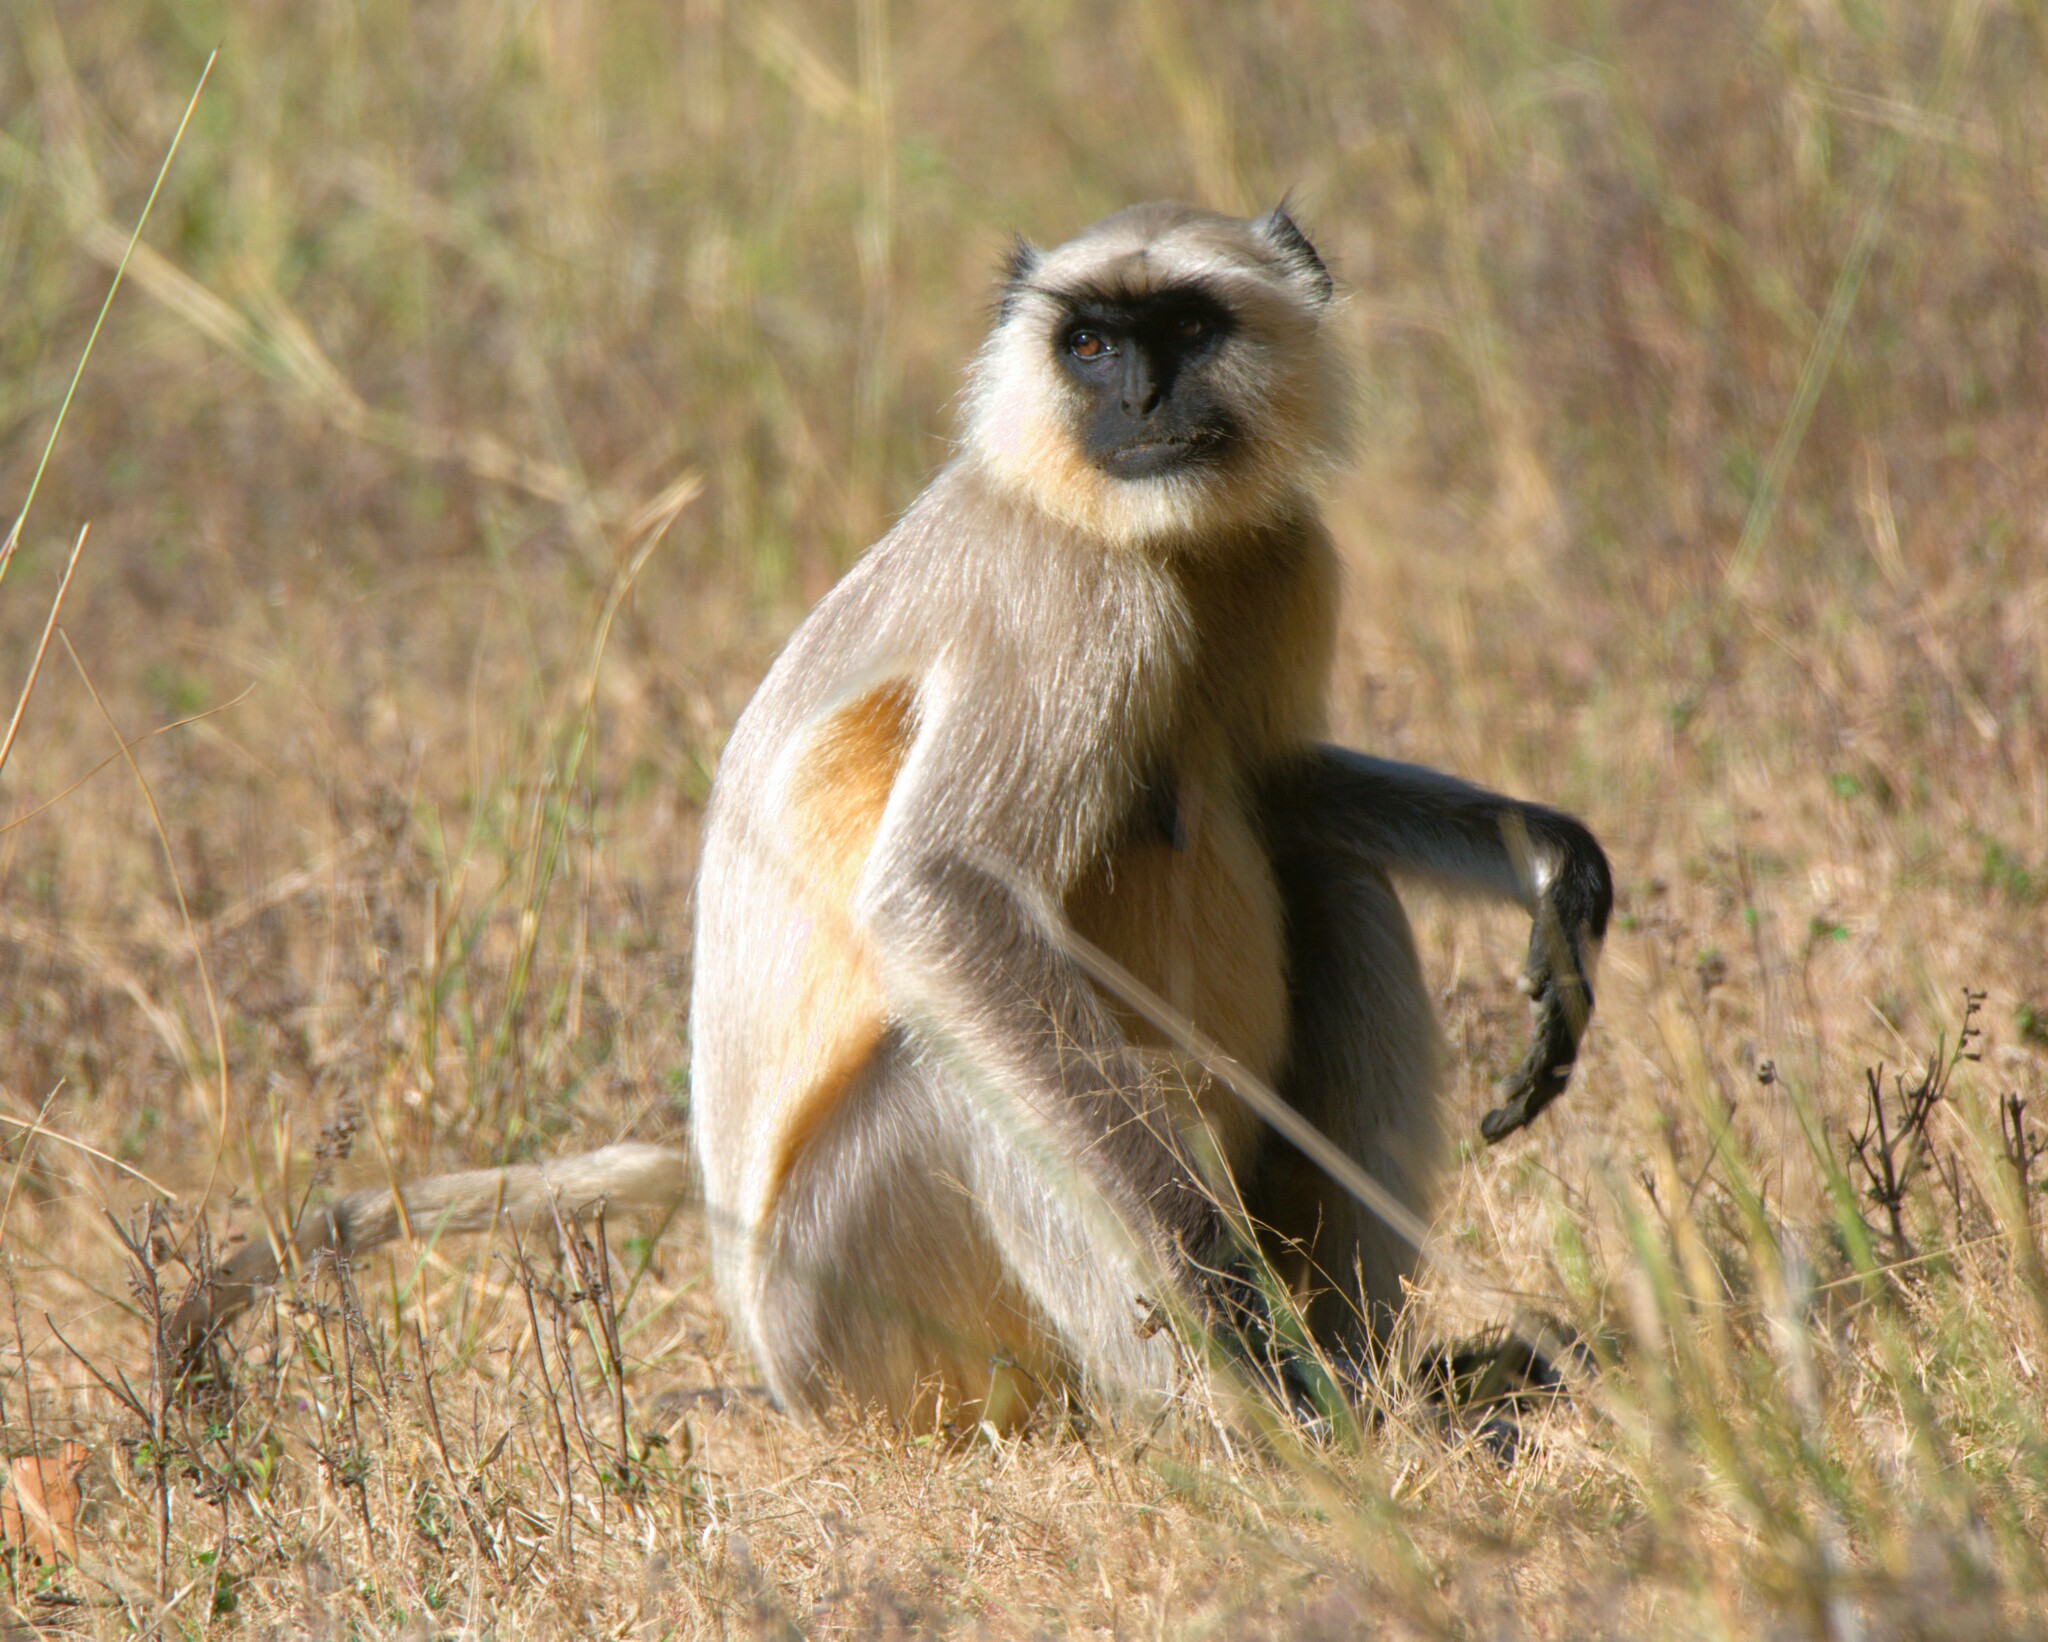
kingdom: Animalia
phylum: Chordata
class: Mammalia
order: Primates
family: Cercopithecidae
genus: Semnopithecus
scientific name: Semnopithecus entellus
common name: Northern plains gray langur
